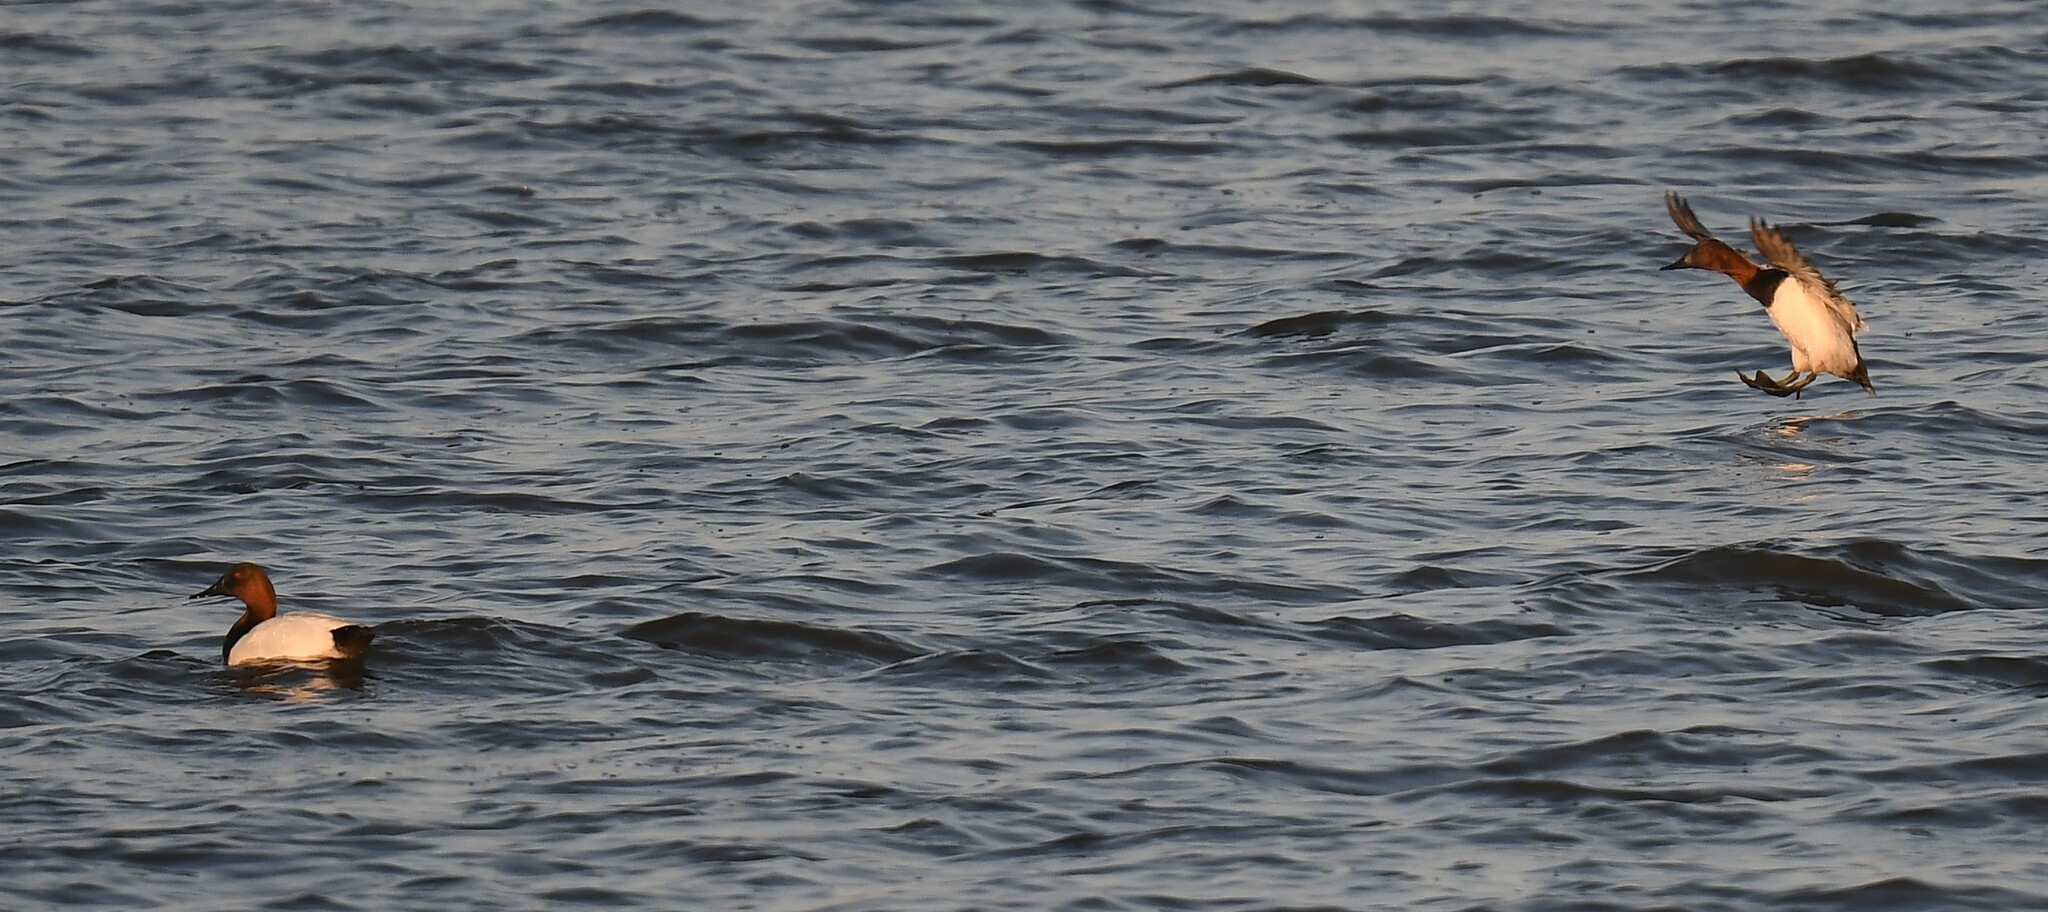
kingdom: Animalia
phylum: Chordata
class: Aves
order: Anseriformes
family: Anatidae
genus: Aythya
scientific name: Aythya valisineria
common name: Canvasback
